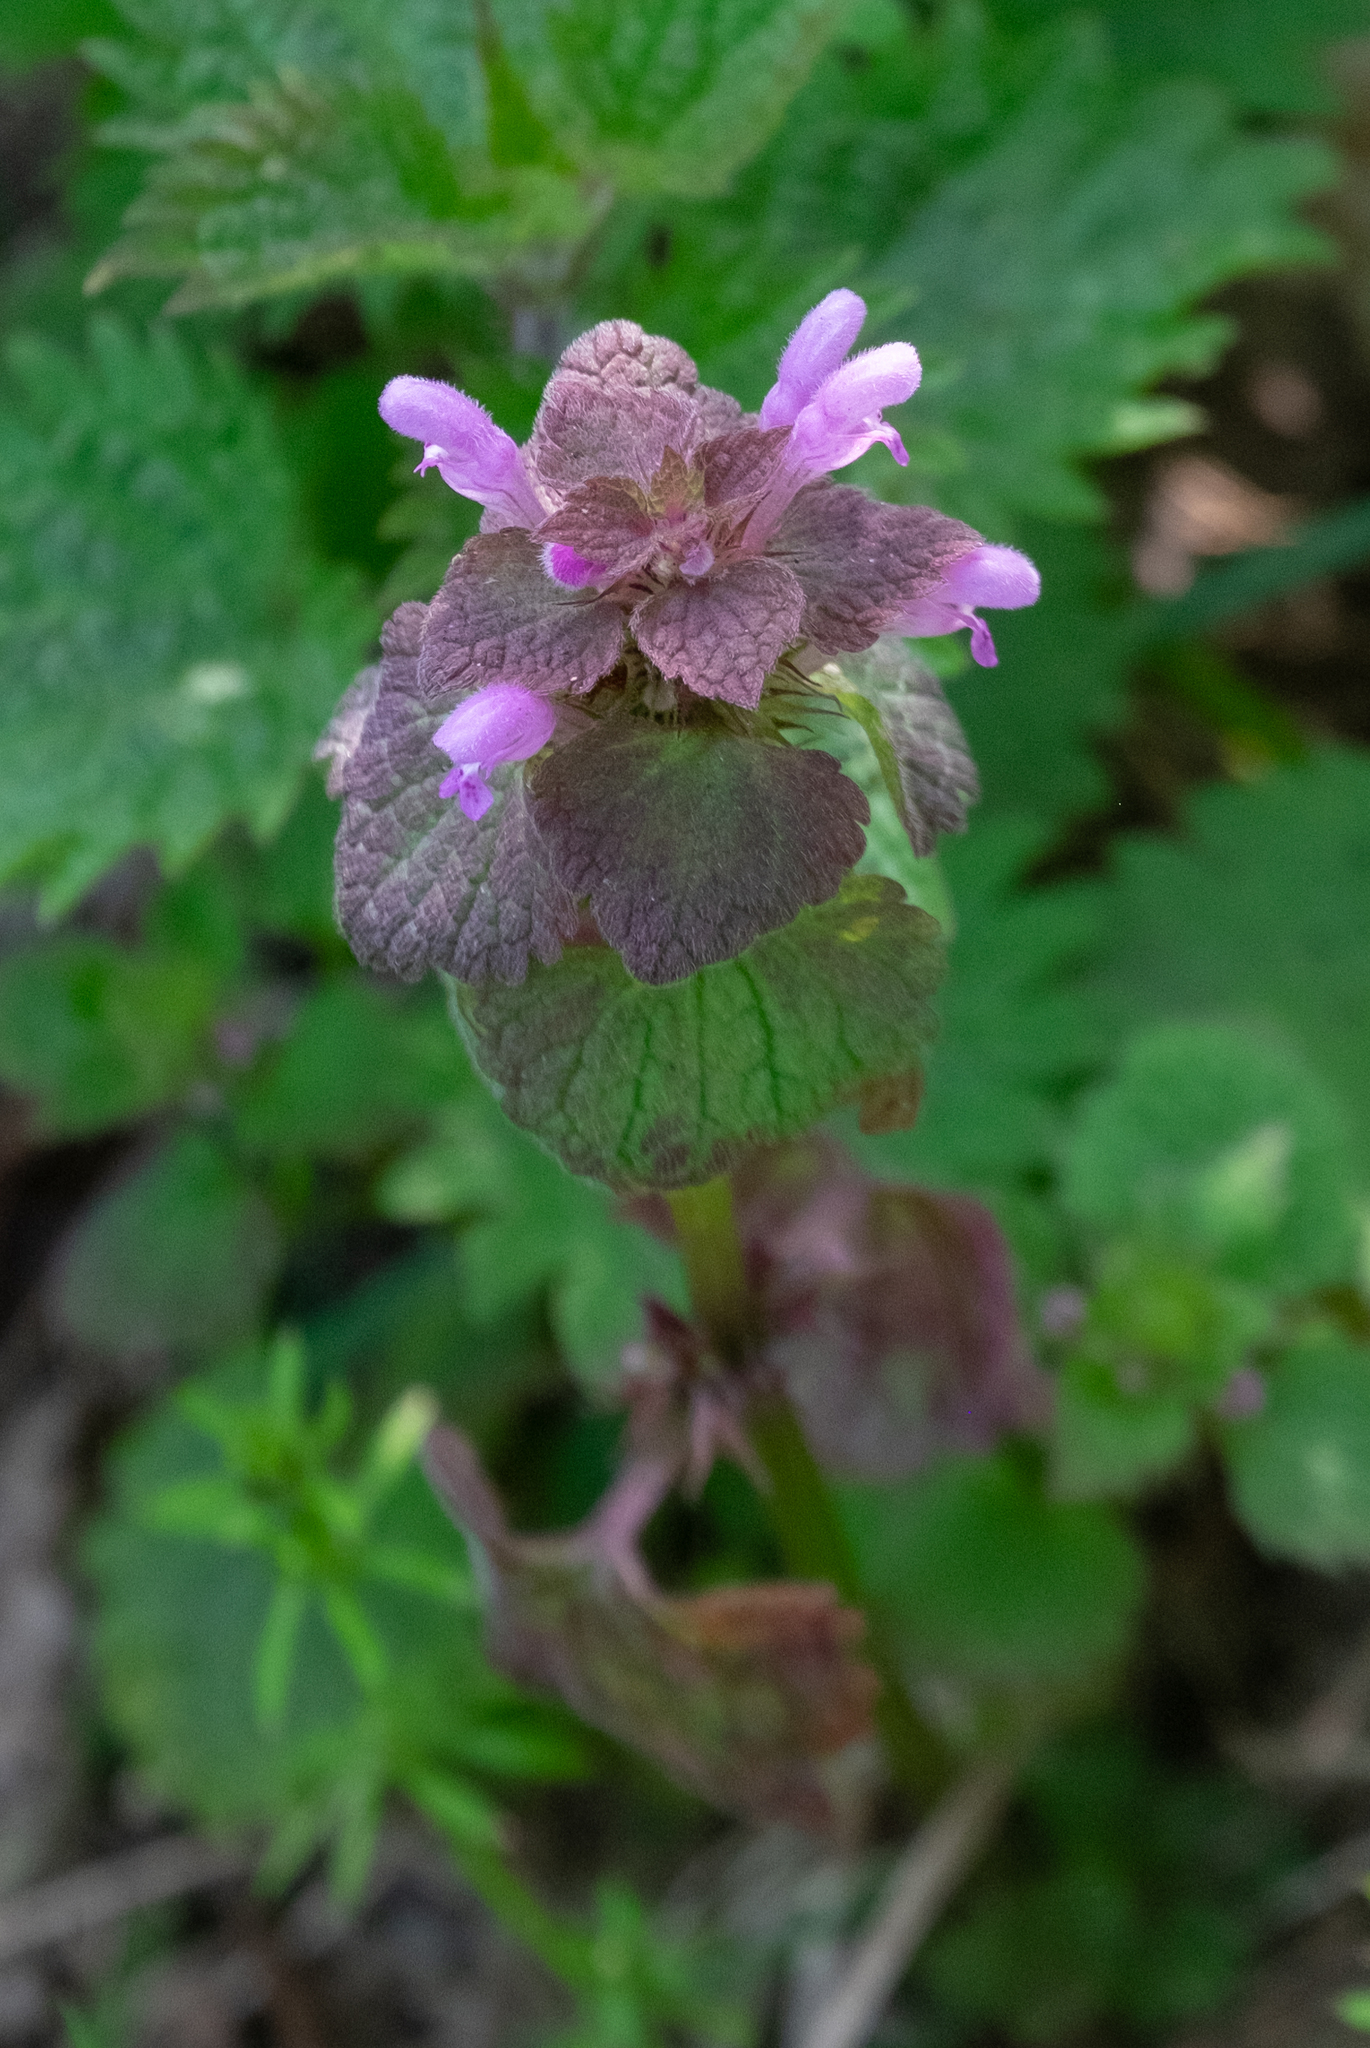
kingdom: Plantae
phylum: Tracheophyta
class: Magnoliopsida
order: Lamiales
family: Lamiaceae
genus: Lamium
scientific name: Lamium purpureum
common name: Red dead-nettle
